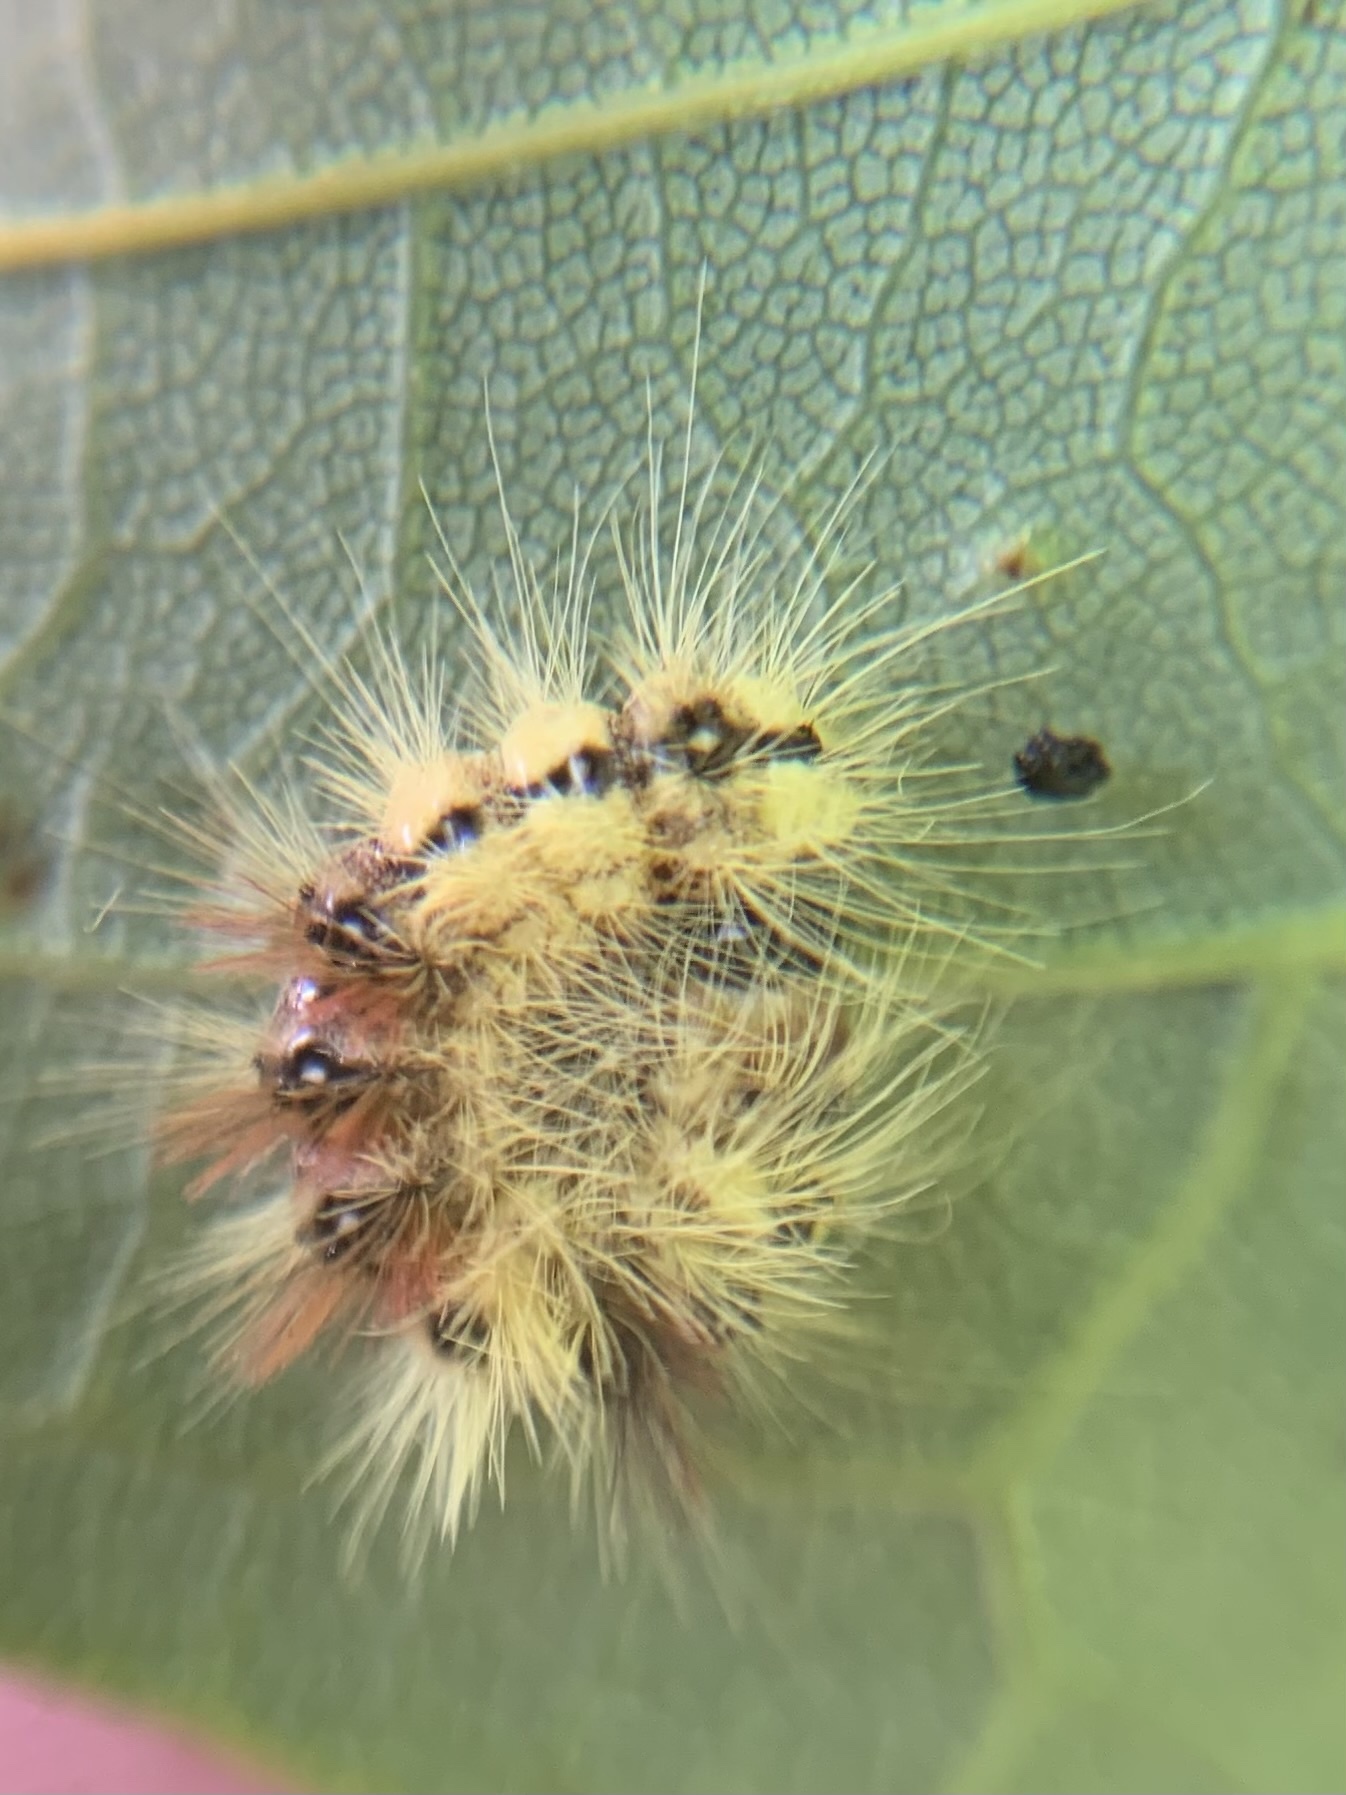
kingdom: Animalia
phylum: Arthropoda
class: Insecta
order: Lepidoptera
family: Noctuidae
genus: Acronicta
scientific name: Acronicta aceris
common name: Sycamore
